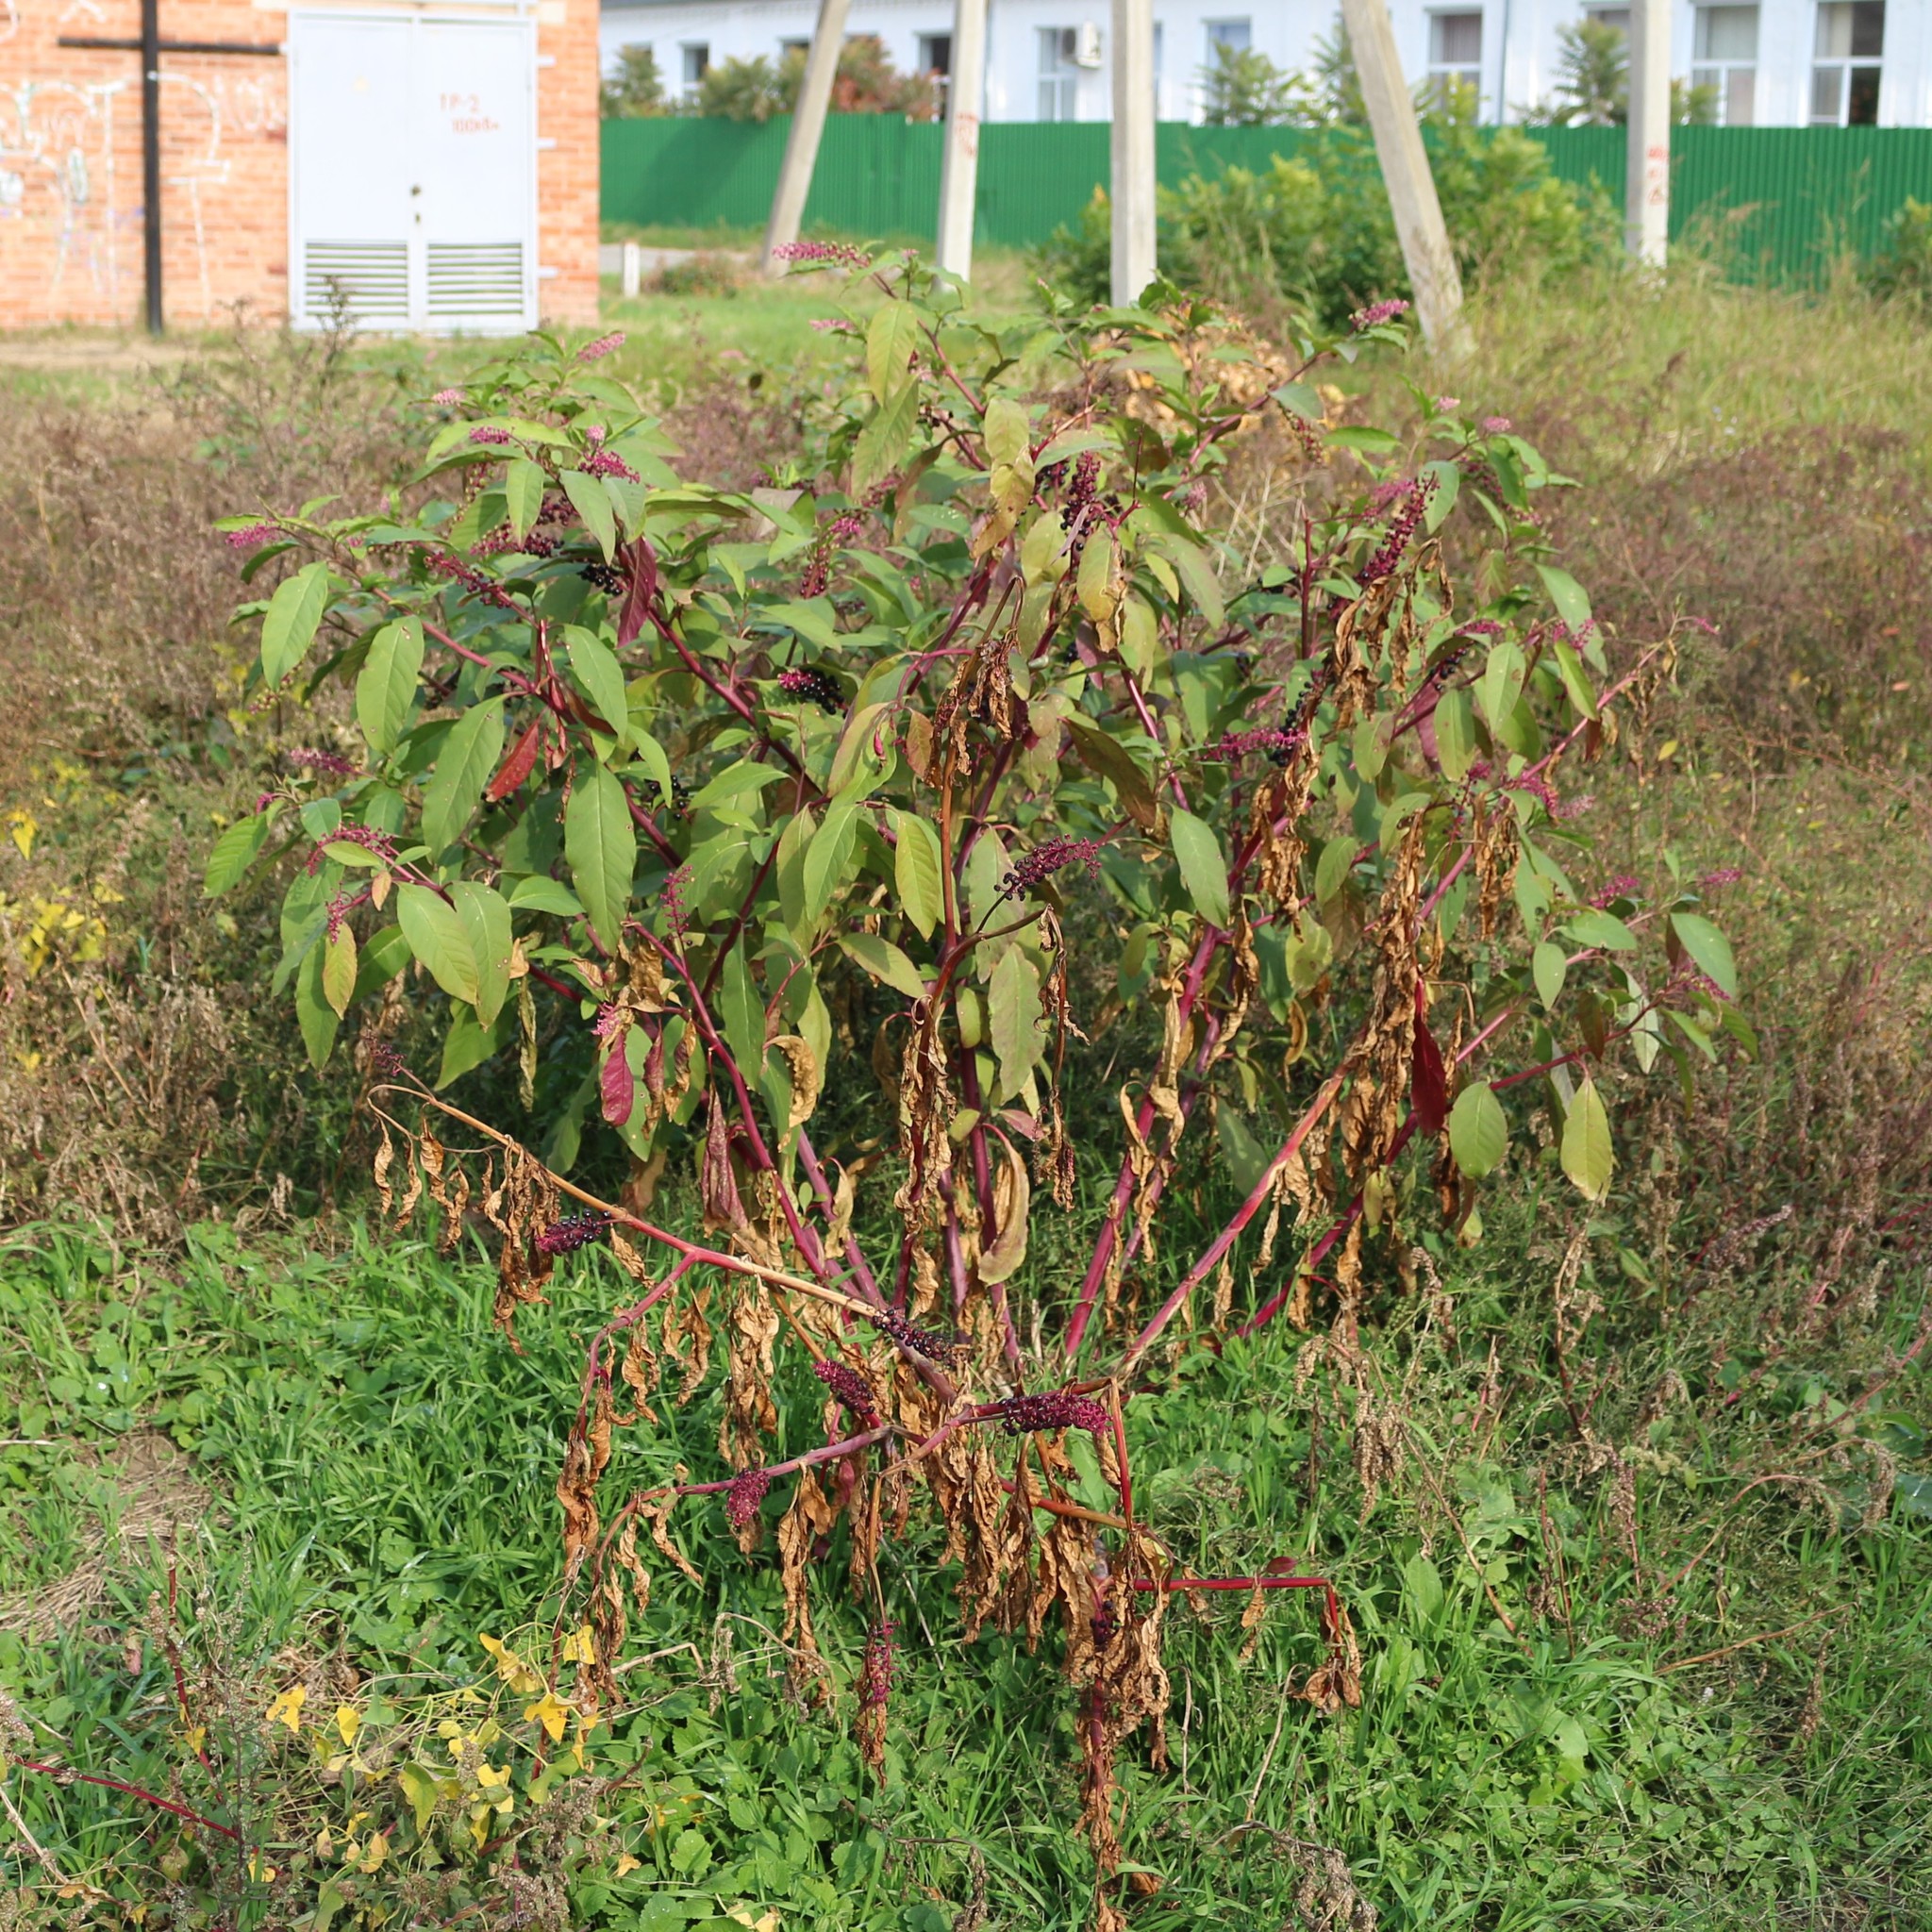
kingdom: Plantae
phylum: Tracheophyta
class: Magnoliopsida
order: Caryophyllales
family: Phytolaccaceae
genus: Phytolacca
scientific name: Phytolacca americana
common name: American pokeweed
